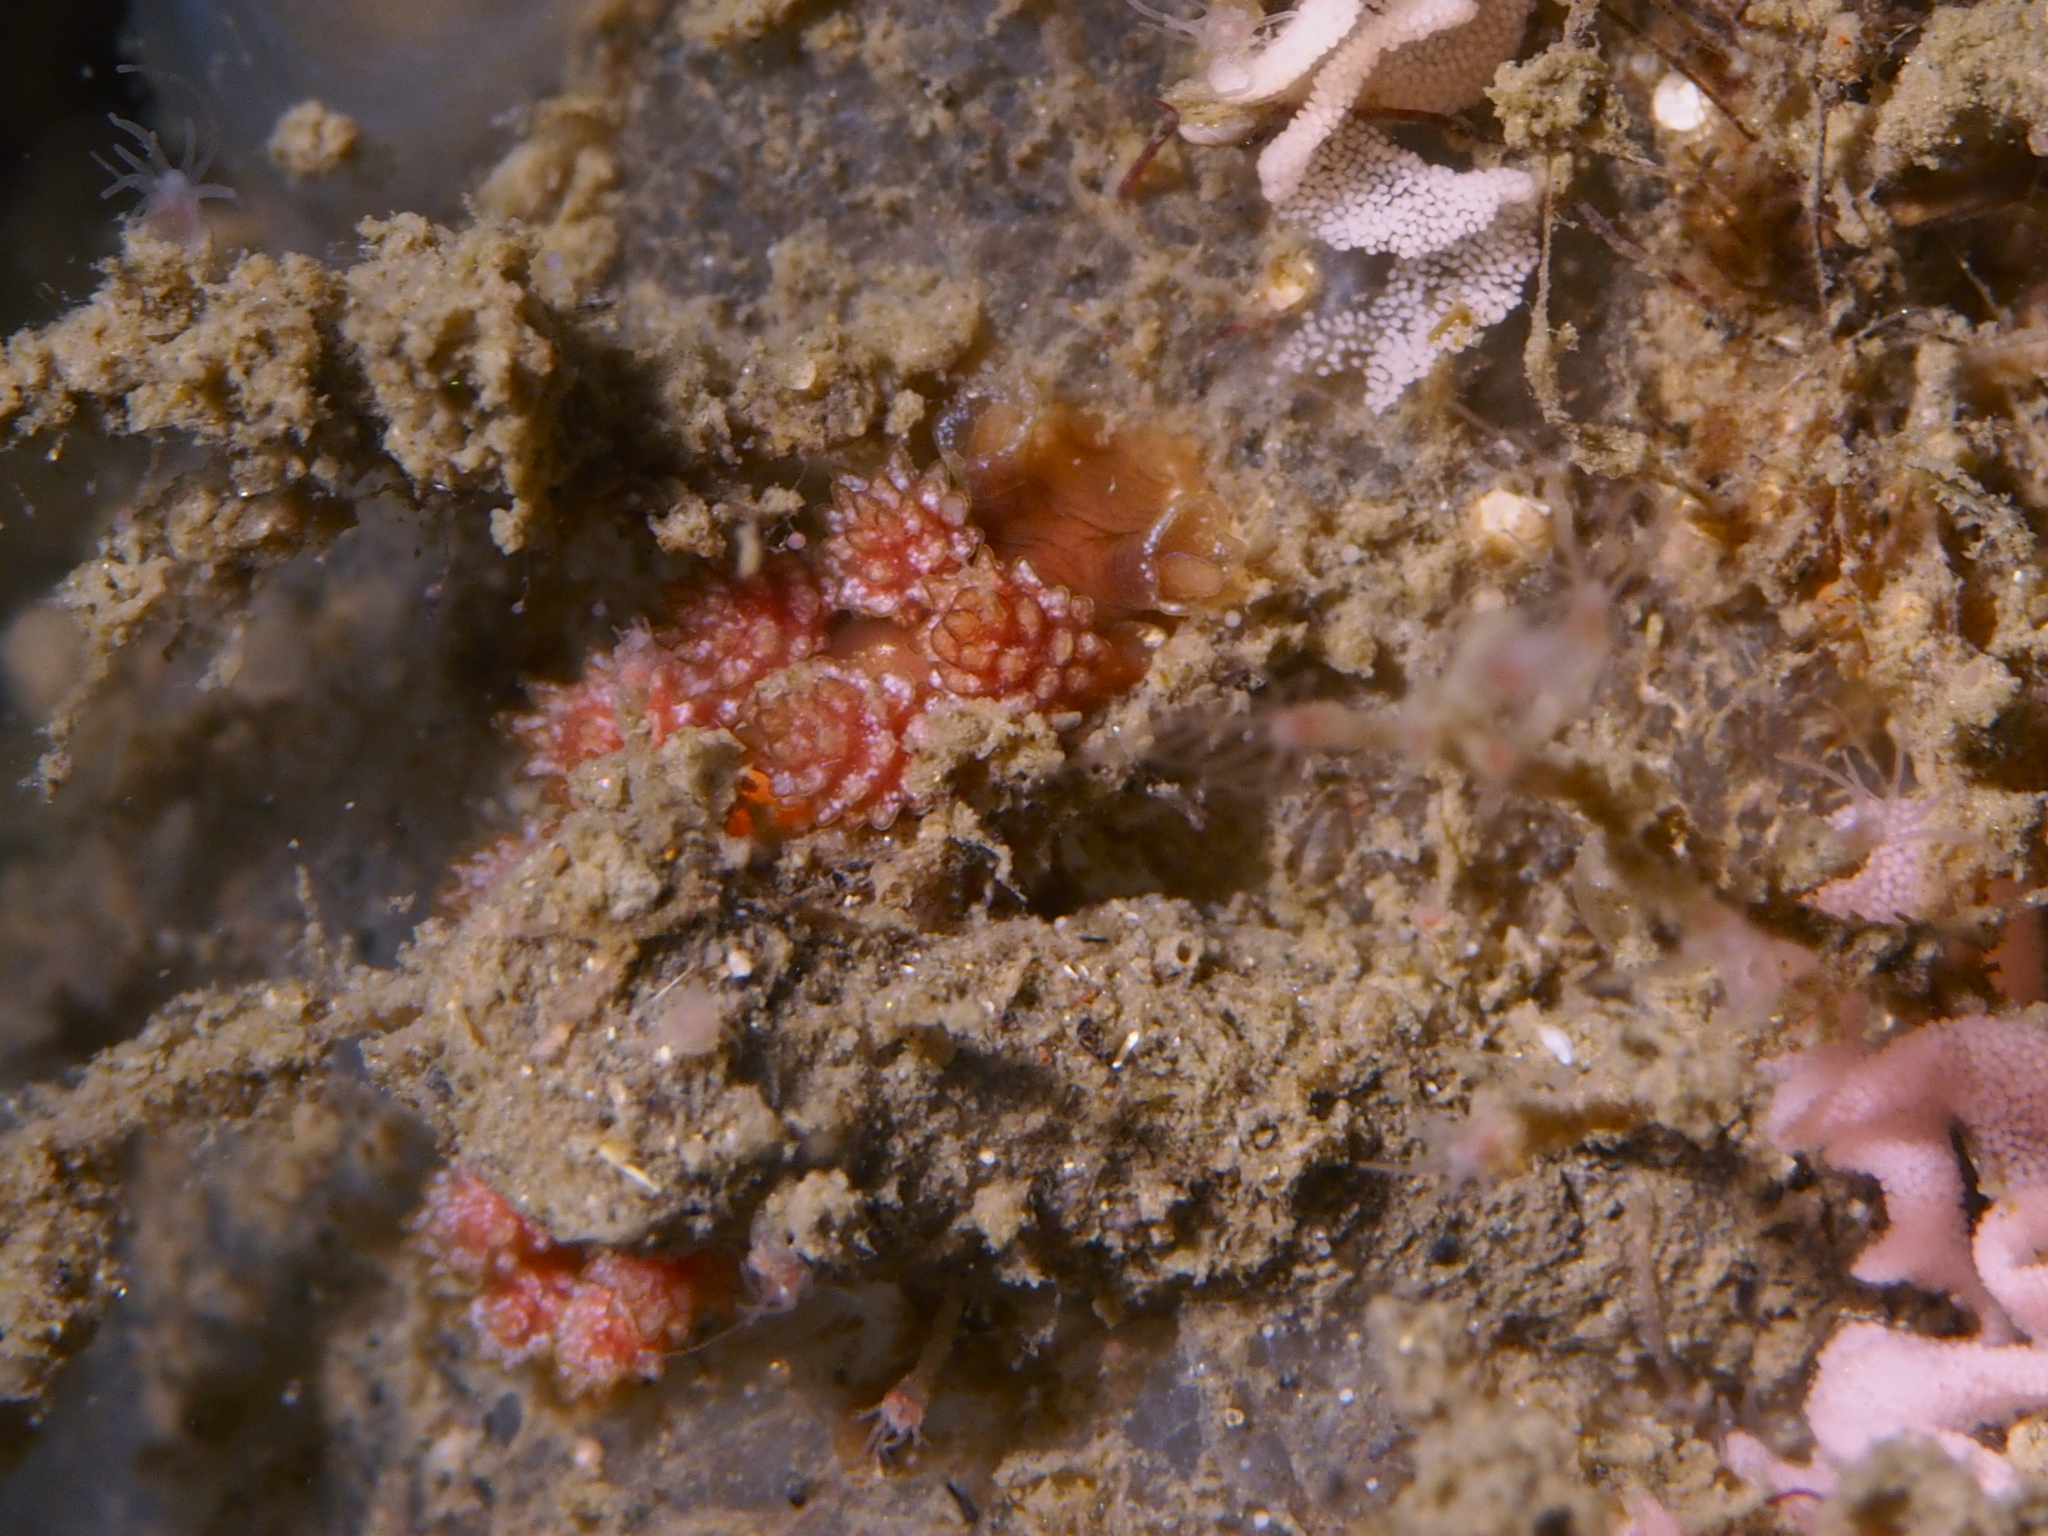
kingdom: Animalia
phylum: Mollusca
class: Gastropoda
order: Nudibranchia
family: Dotidae
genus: Doto
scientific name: Doto fragilis
